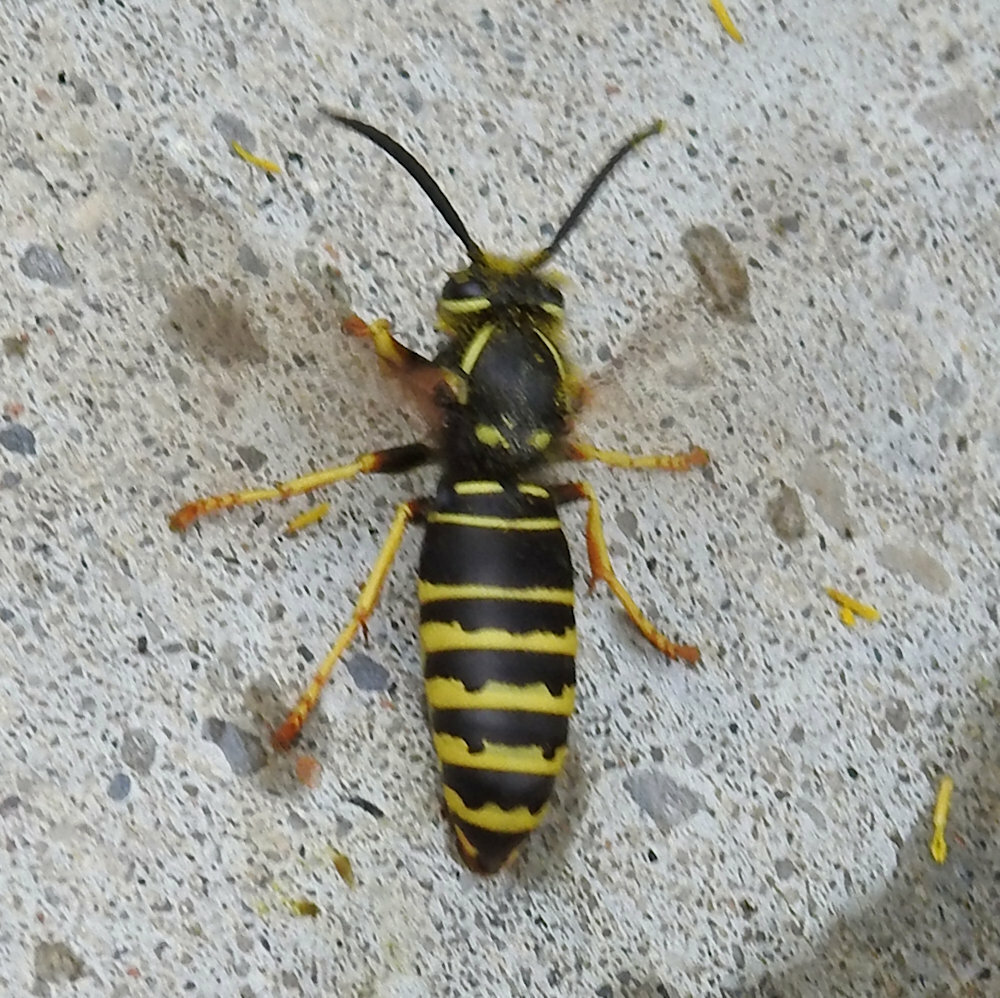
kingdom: Animalia
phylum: Arthropoda
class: Insecta
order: Hymenoptera
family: Vespidae
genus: Vespula
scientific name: Vespula vidua
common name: Widow yellowjacket
